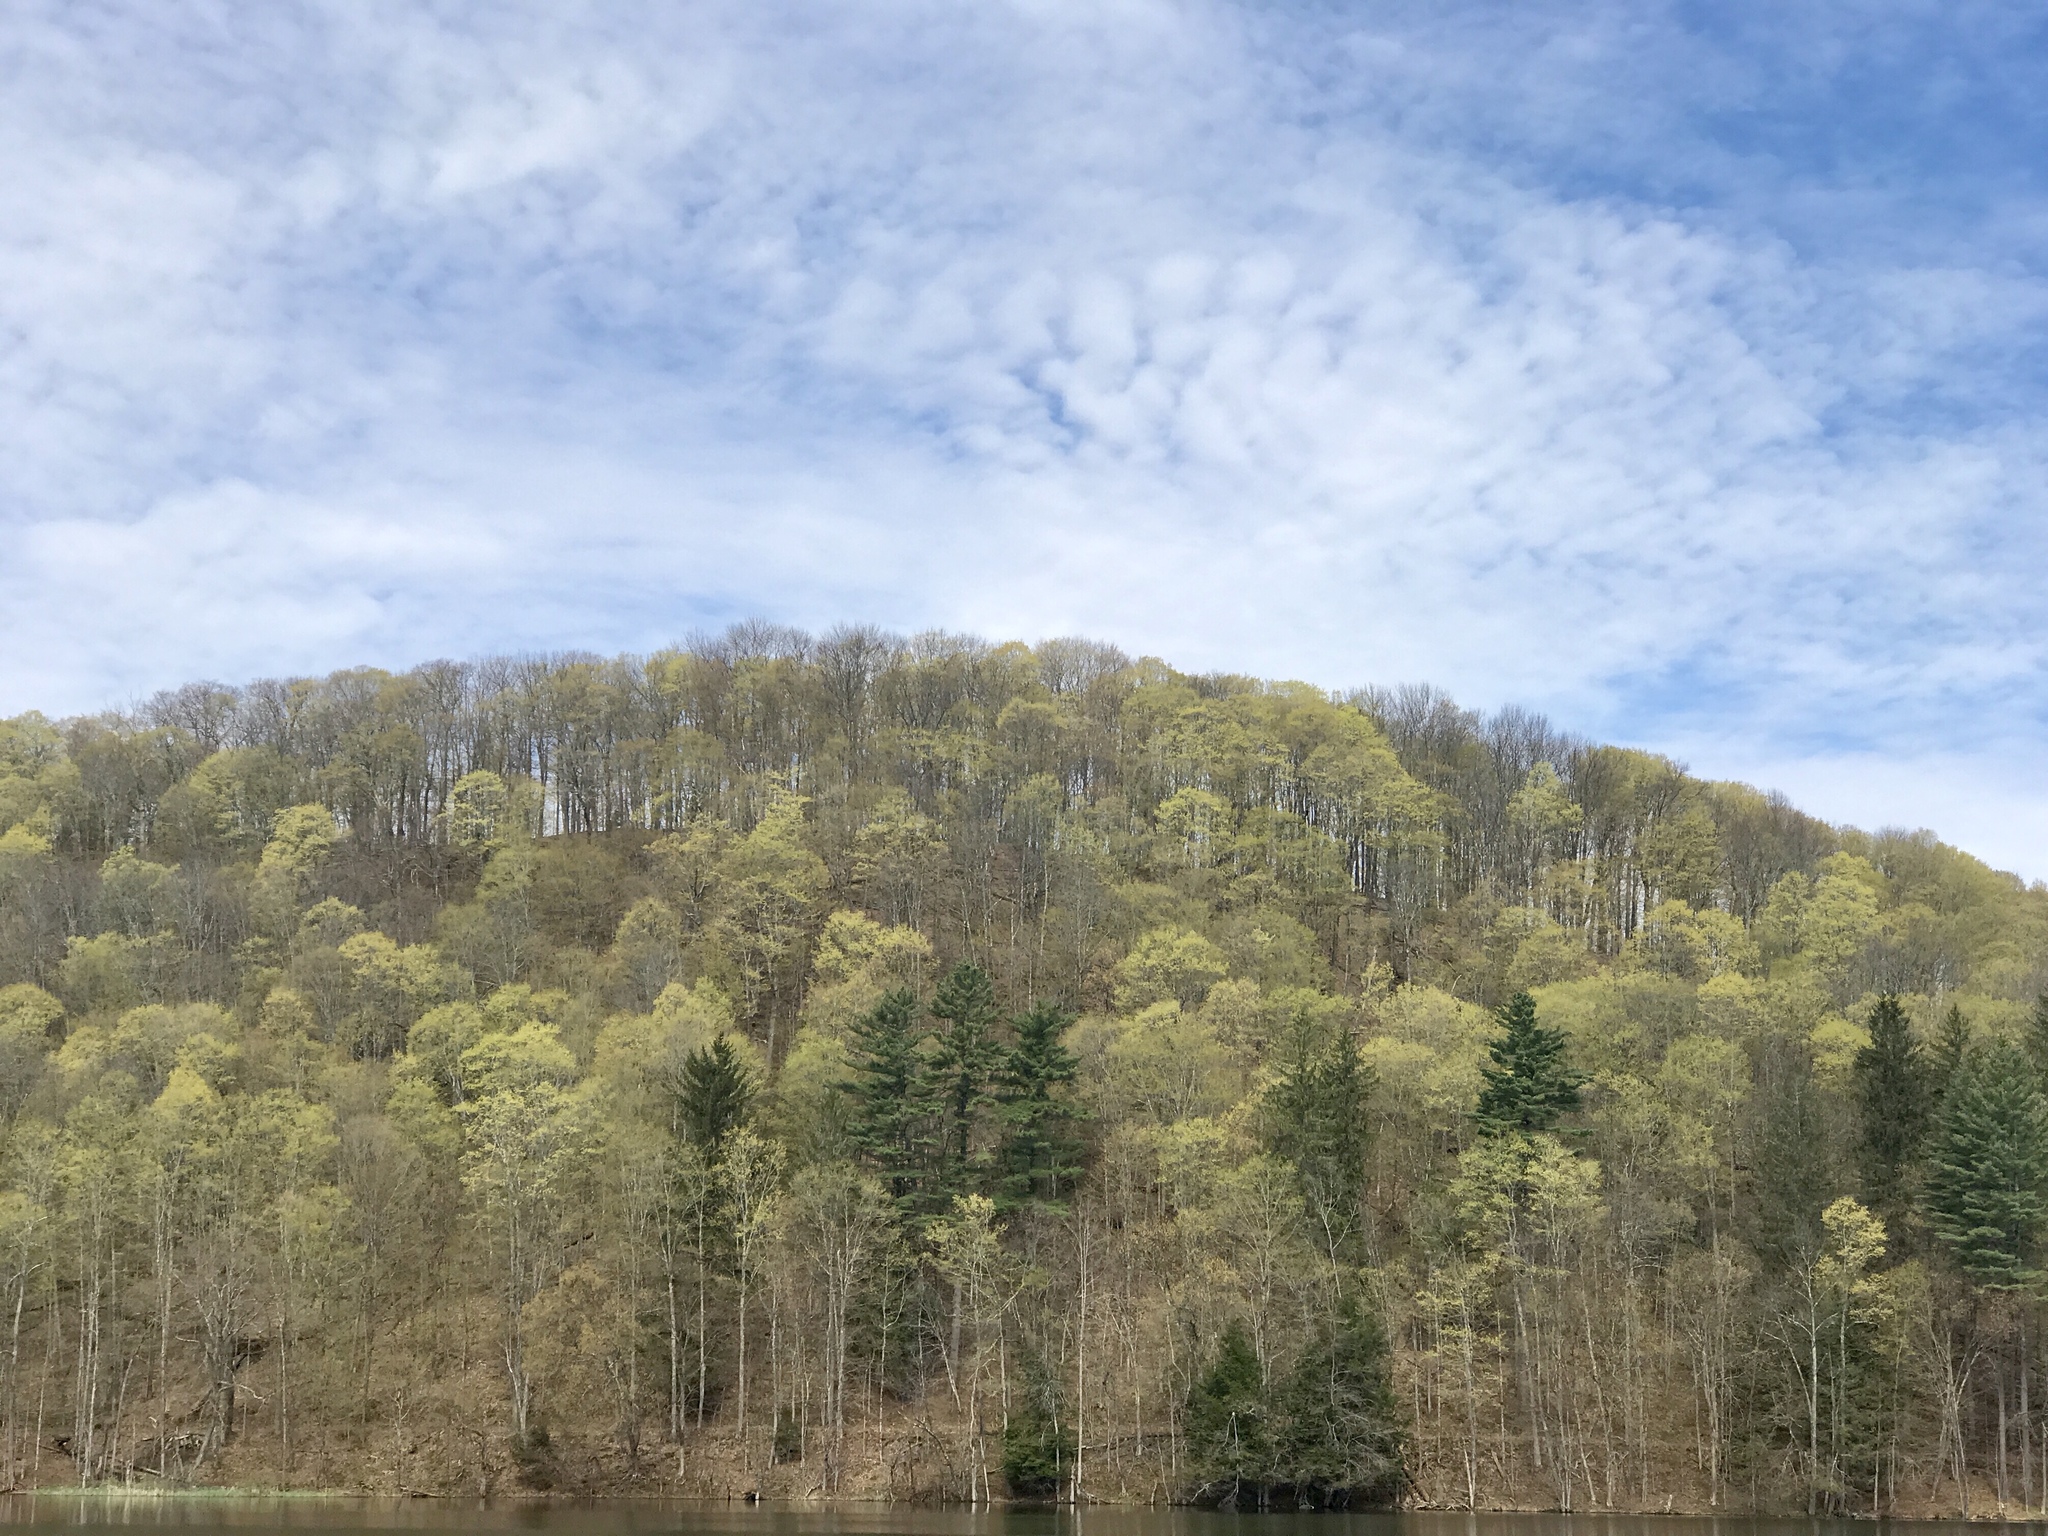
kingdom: Plantae
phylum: Tracheophyta
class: Magnoliopsida
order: Sapindales
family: Sapindaceae
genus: Acer
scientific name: Acer saccharum
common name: Sugar maple
